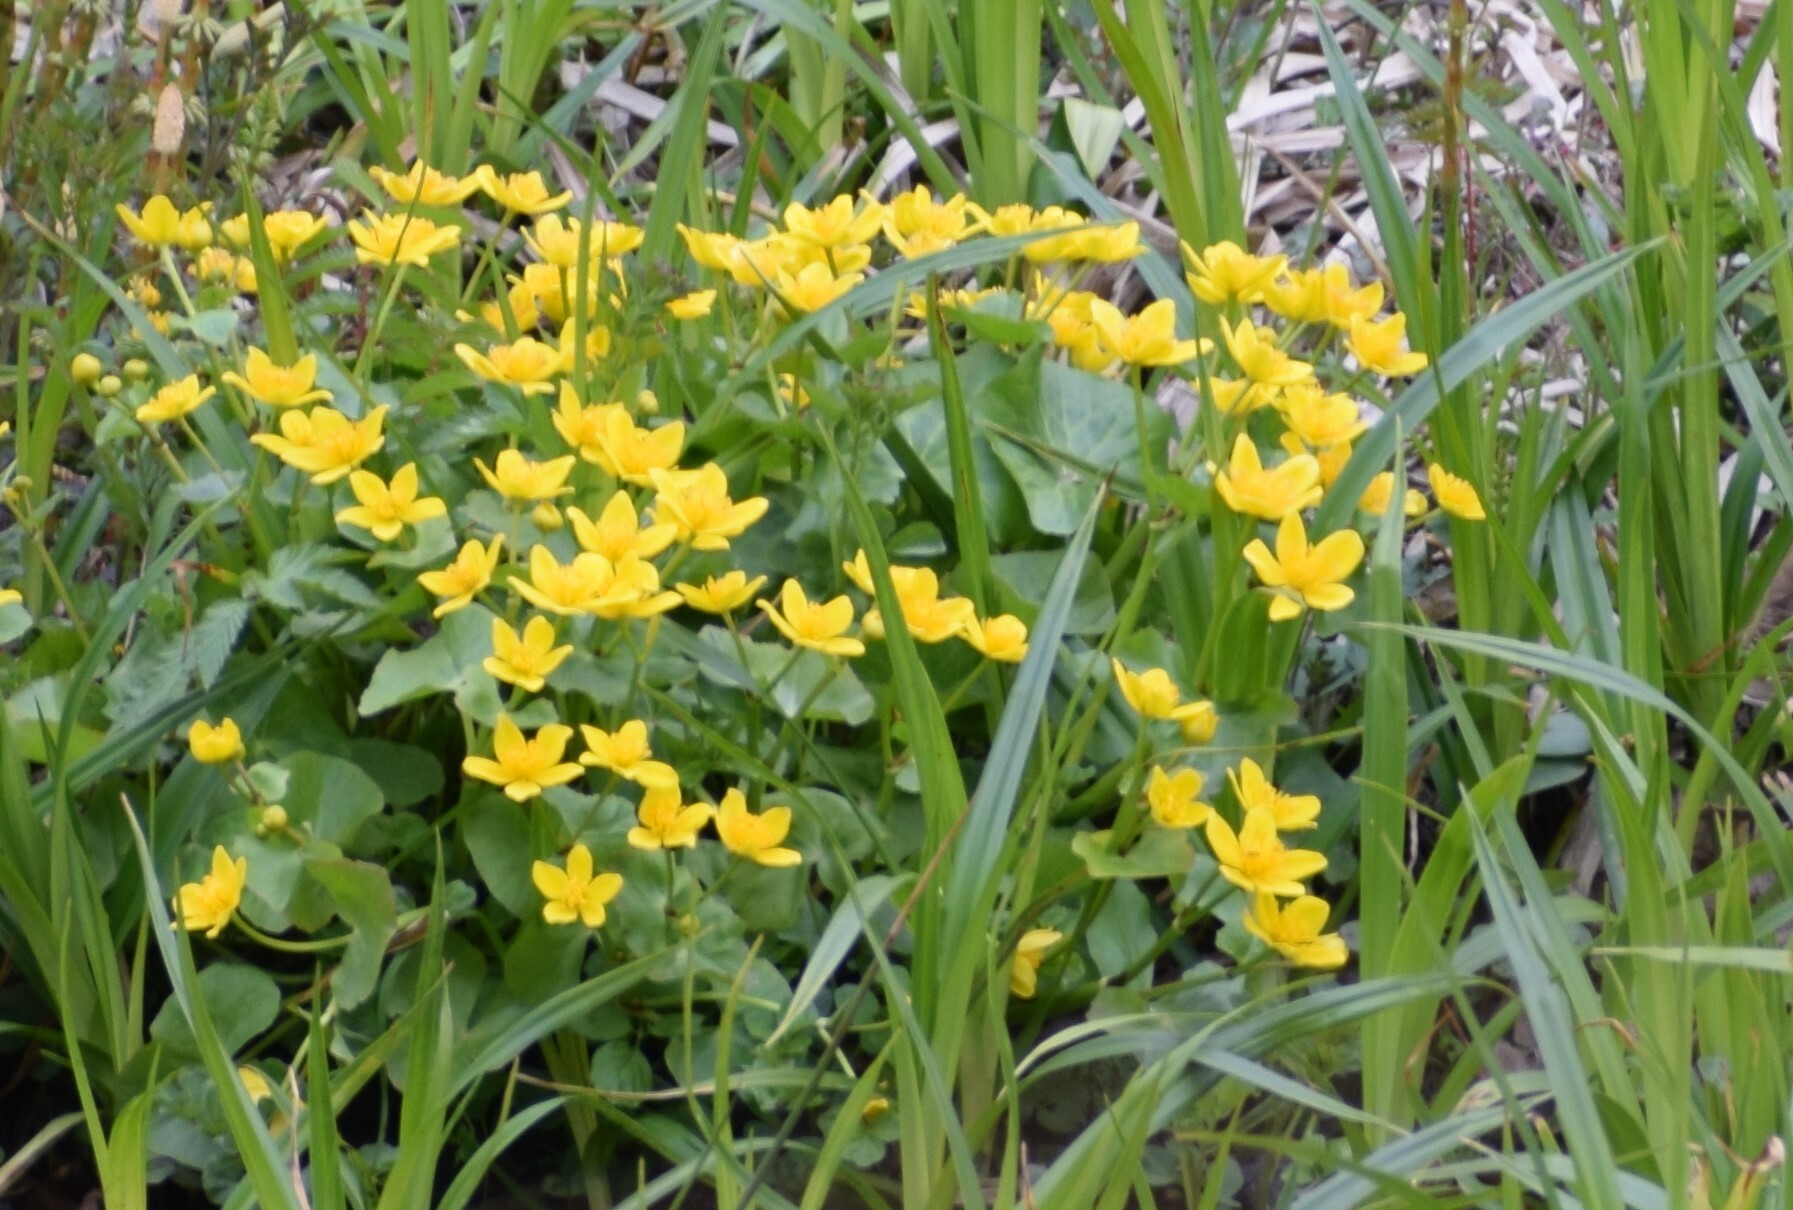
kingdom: Plantae
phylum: Tracheophyta
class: Magnoliopsida
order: Ranunculales
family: Ranunculaceae
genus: Caltha
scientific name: Caltha palustris
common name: Marsh marigold
